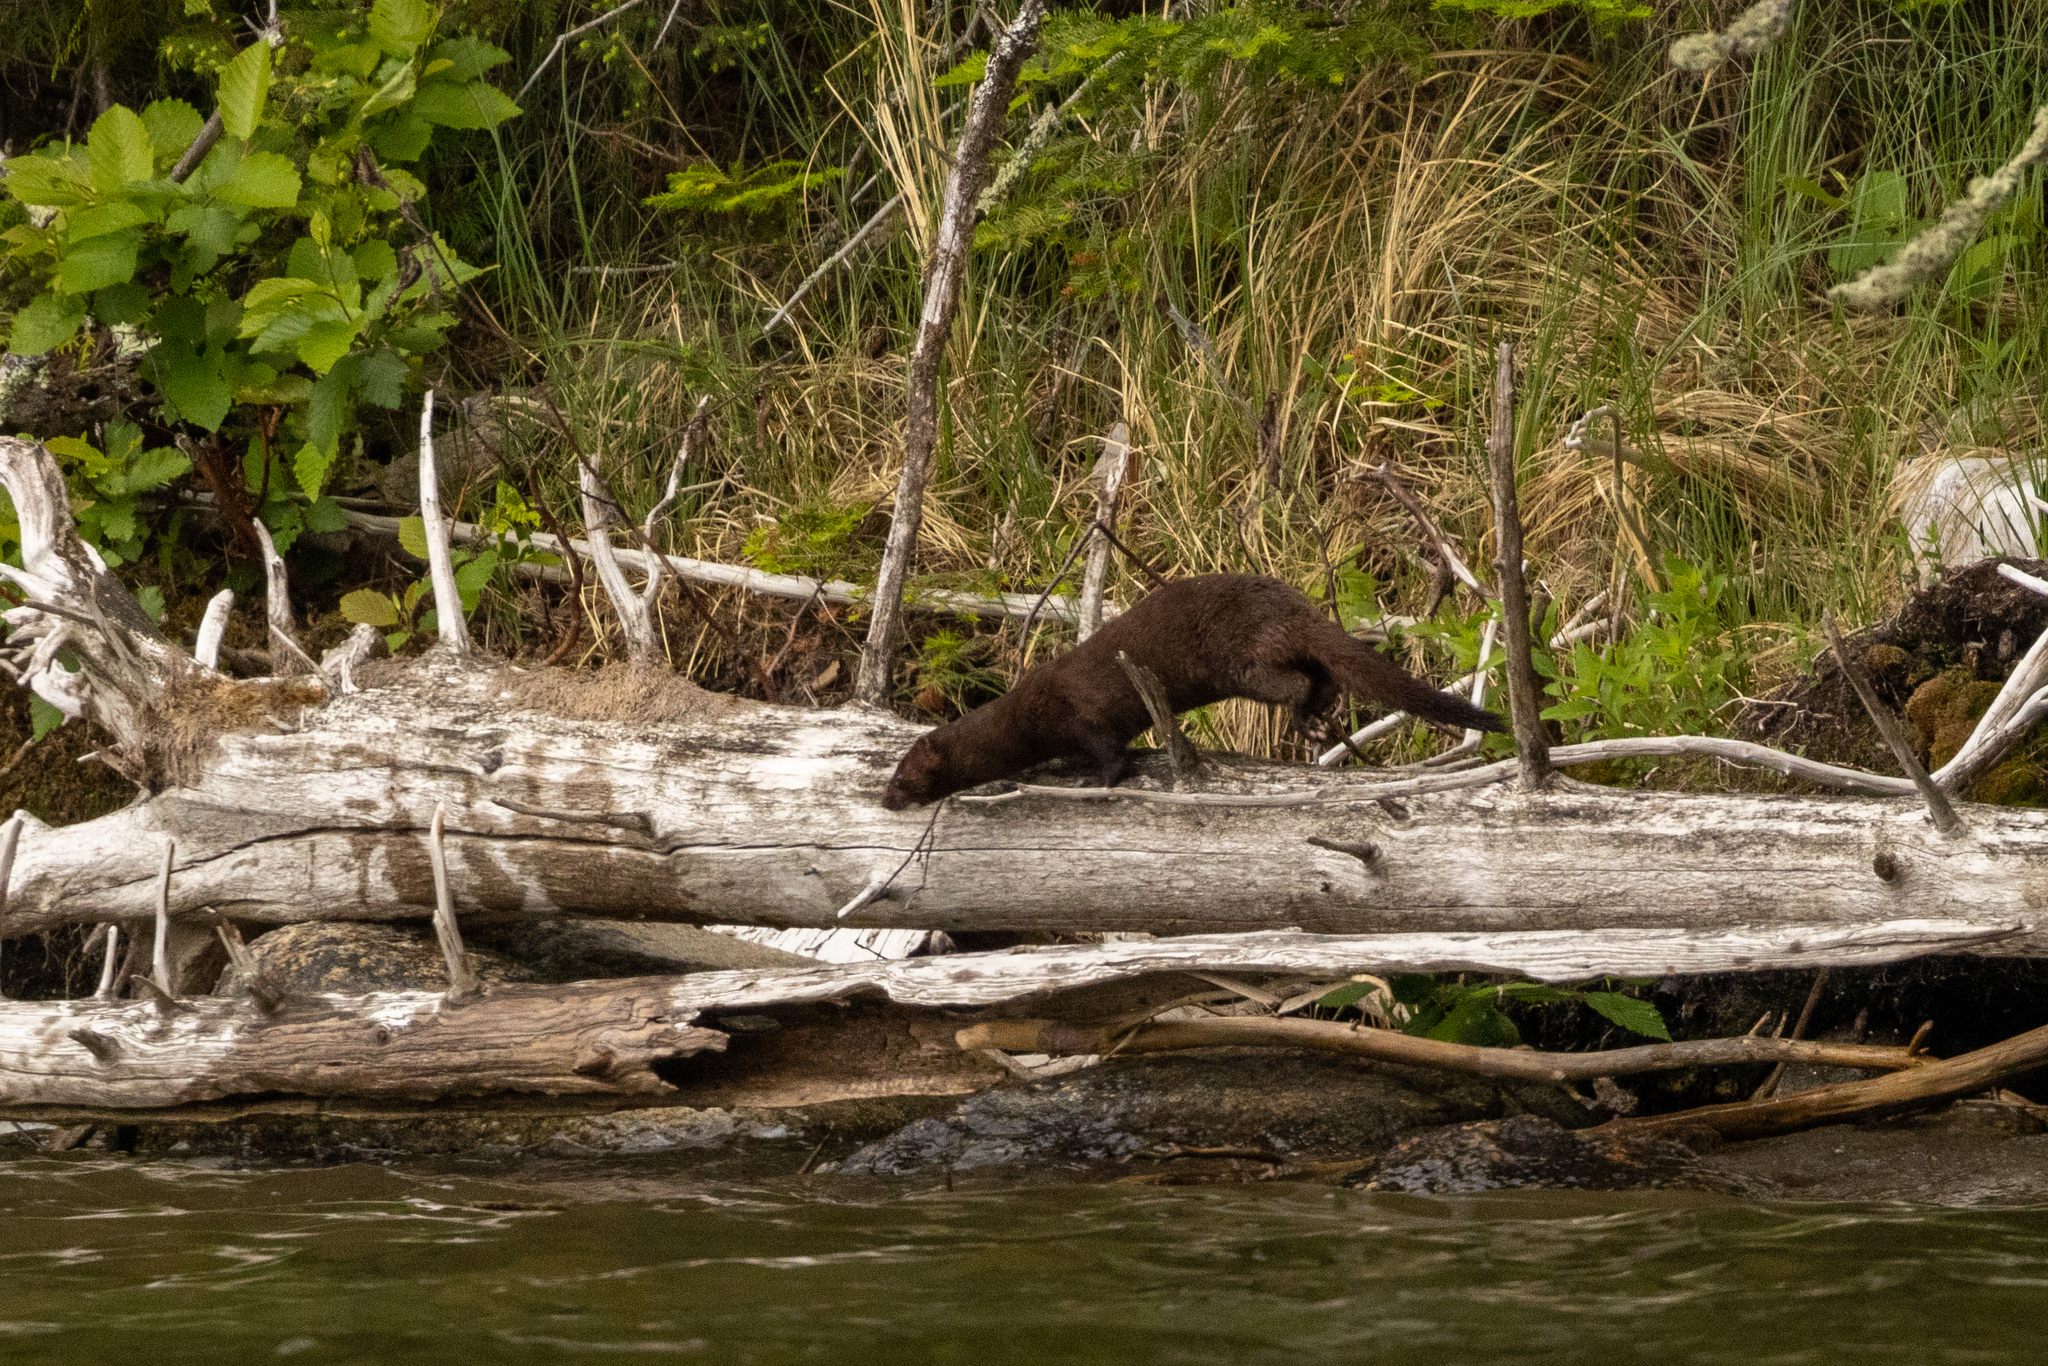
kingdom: Animalia
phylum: Chordata
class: Mammalia
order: Carnivora
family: Mustelidae
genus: Mustela
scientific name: Mustela
